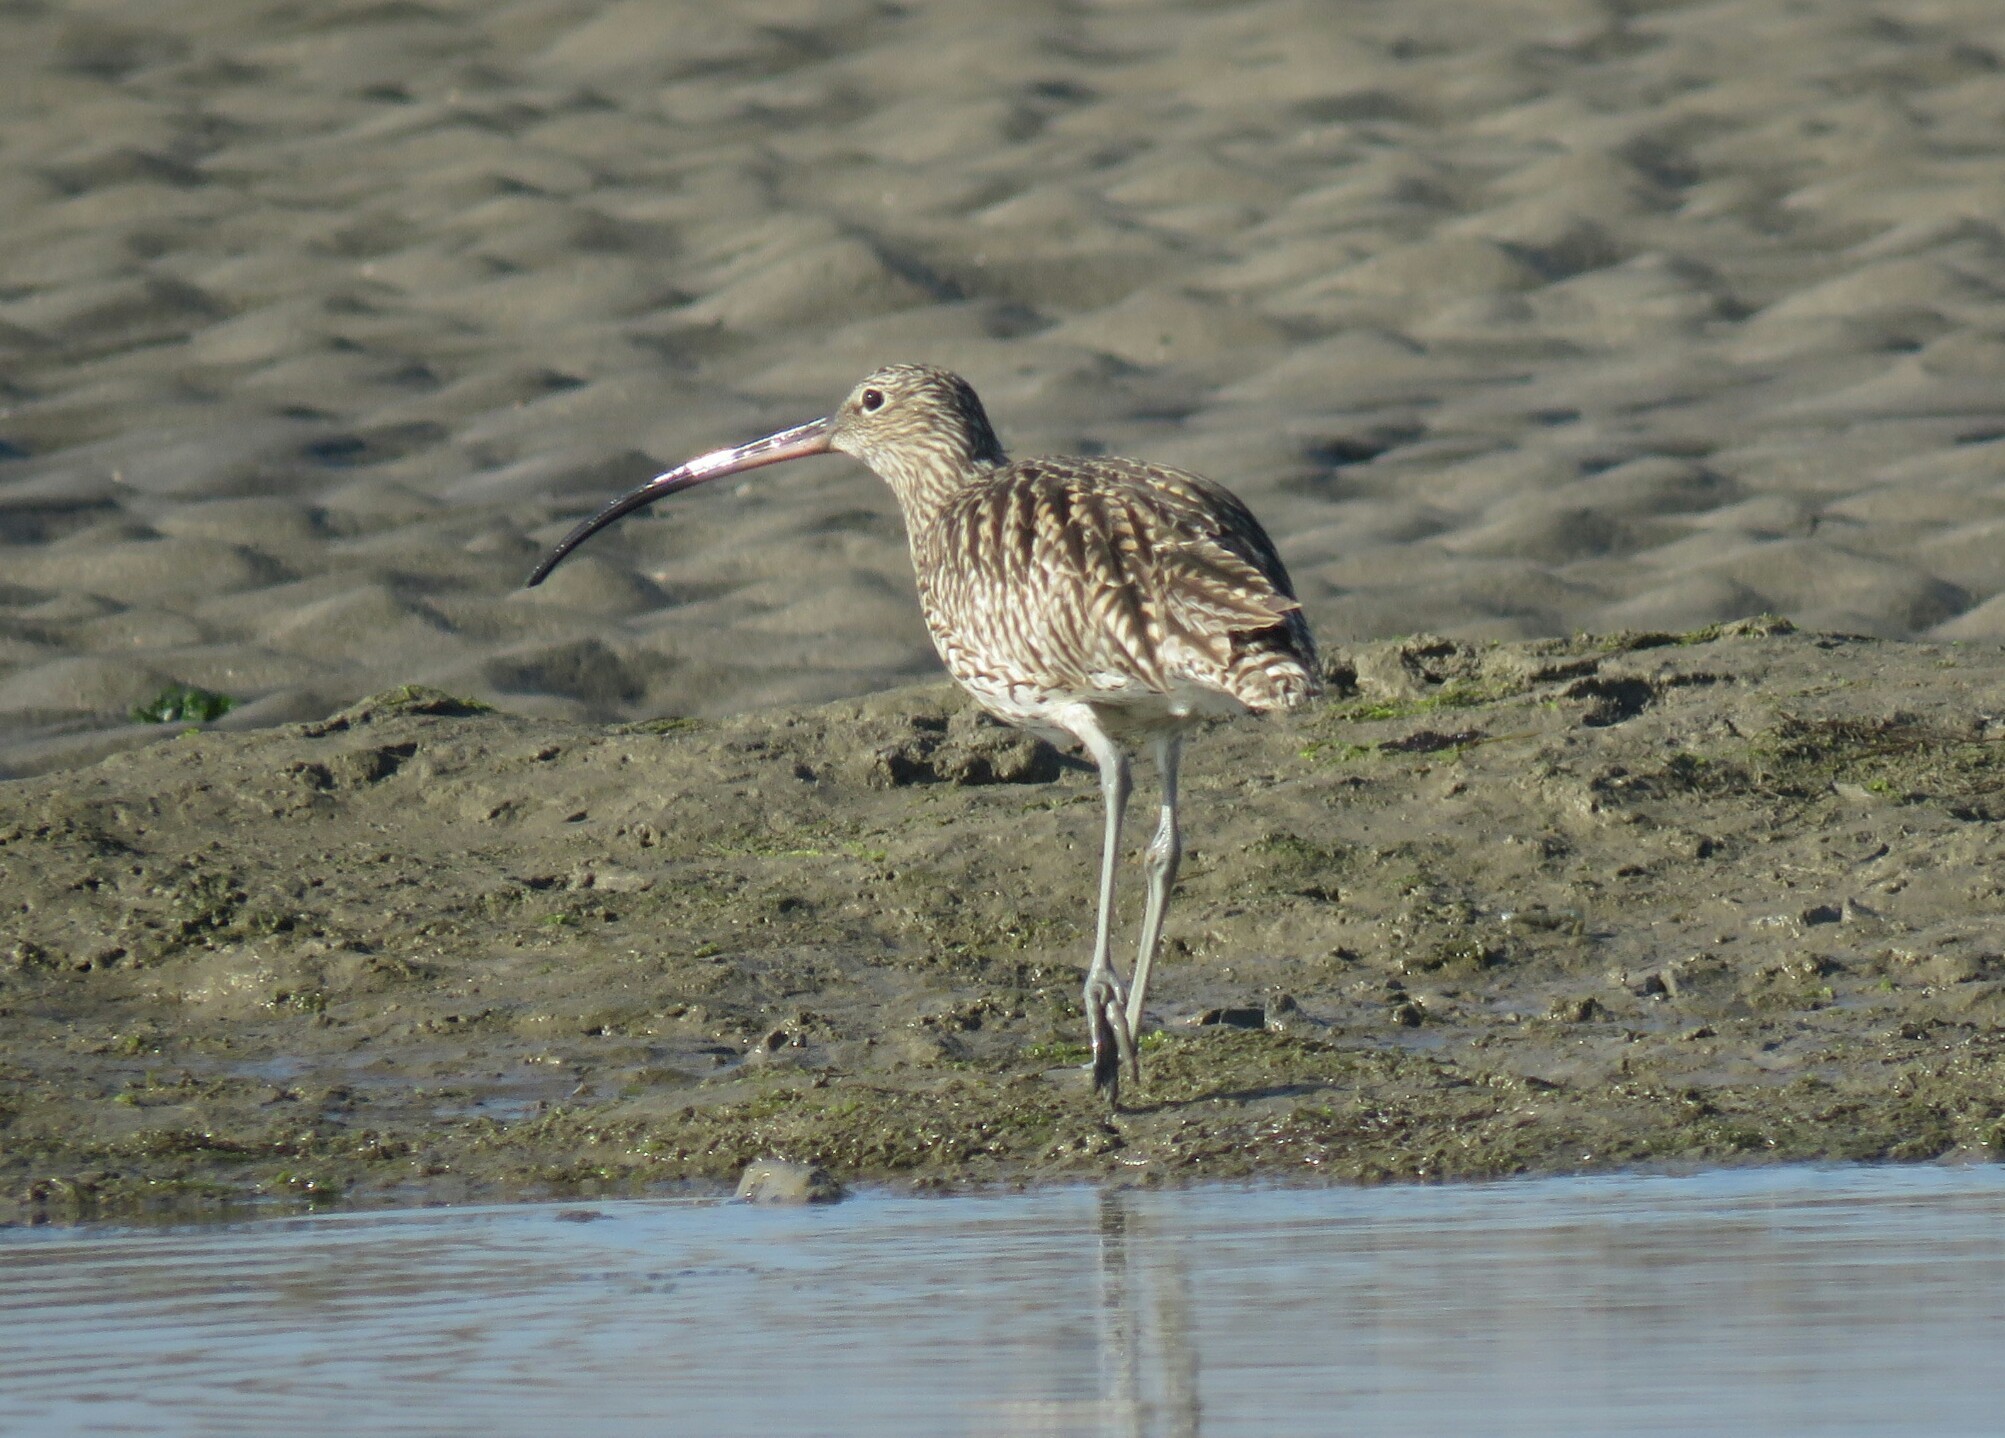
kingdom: Animalia
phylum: Chordata
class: Aves
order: Charadriiformes
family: Scolopacidae
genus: Numenius
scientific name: Numenius arquata
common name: Eurasian curlew
